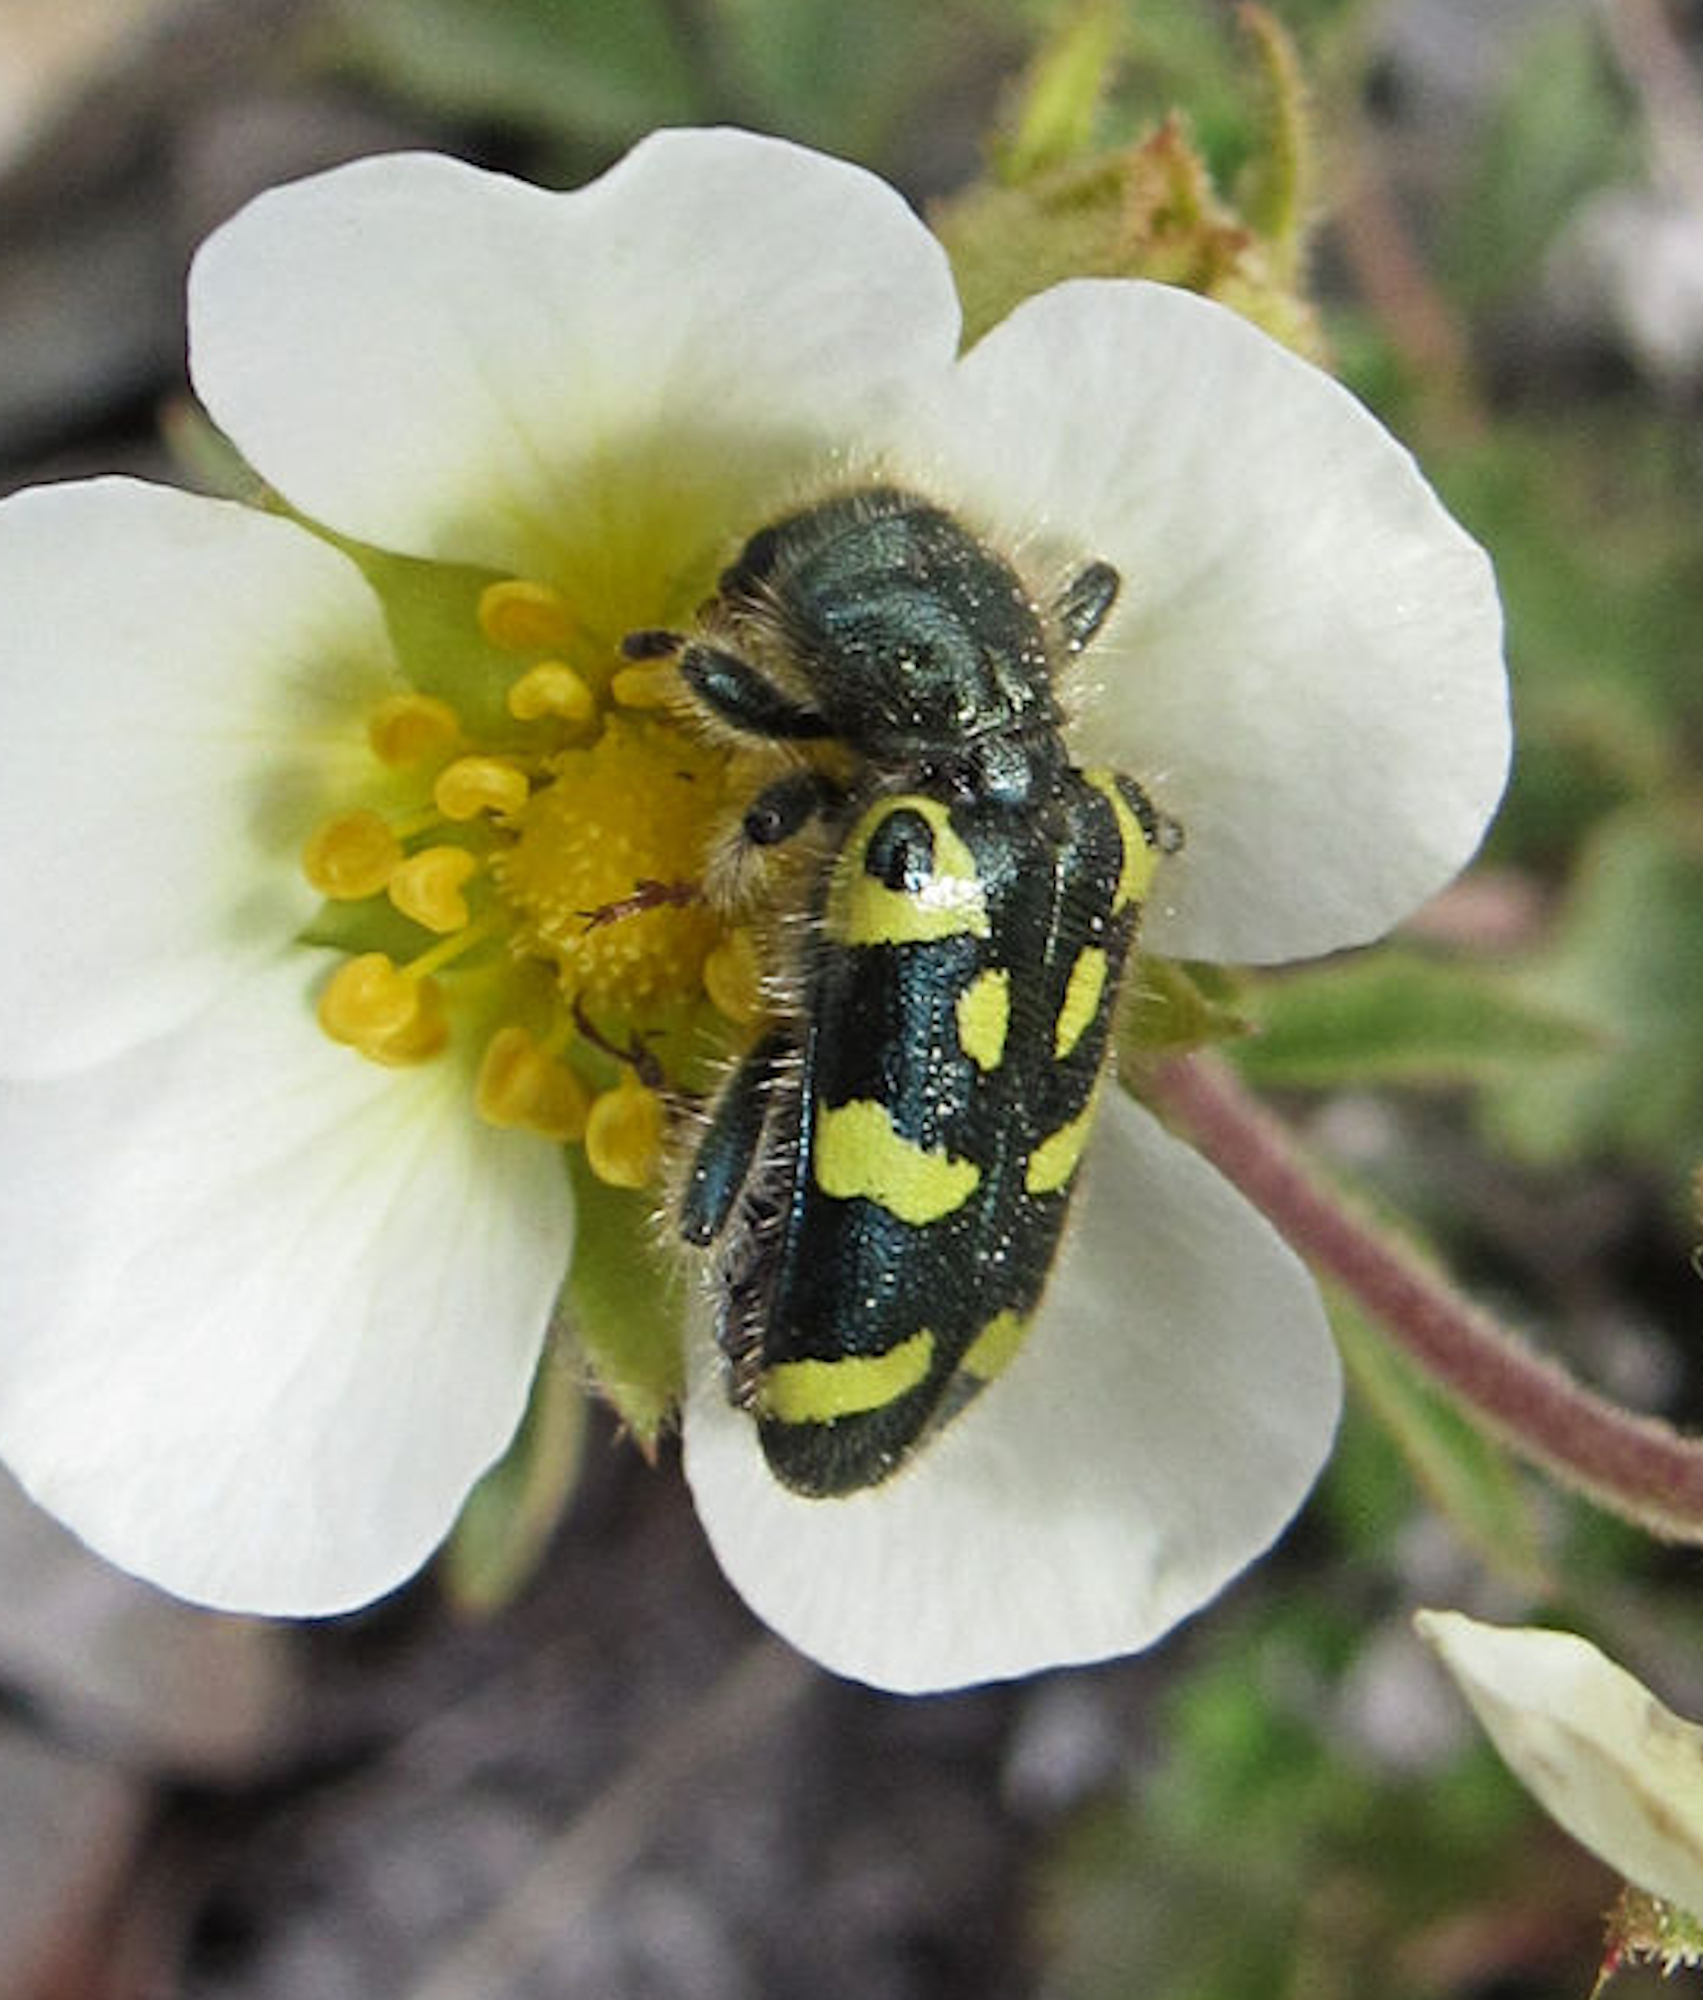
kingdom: Animalia
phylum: Arthropoda
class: Insecta
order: Coleoptera
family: Cleridae
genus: Trichodes
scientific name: Trichodes ornatus
